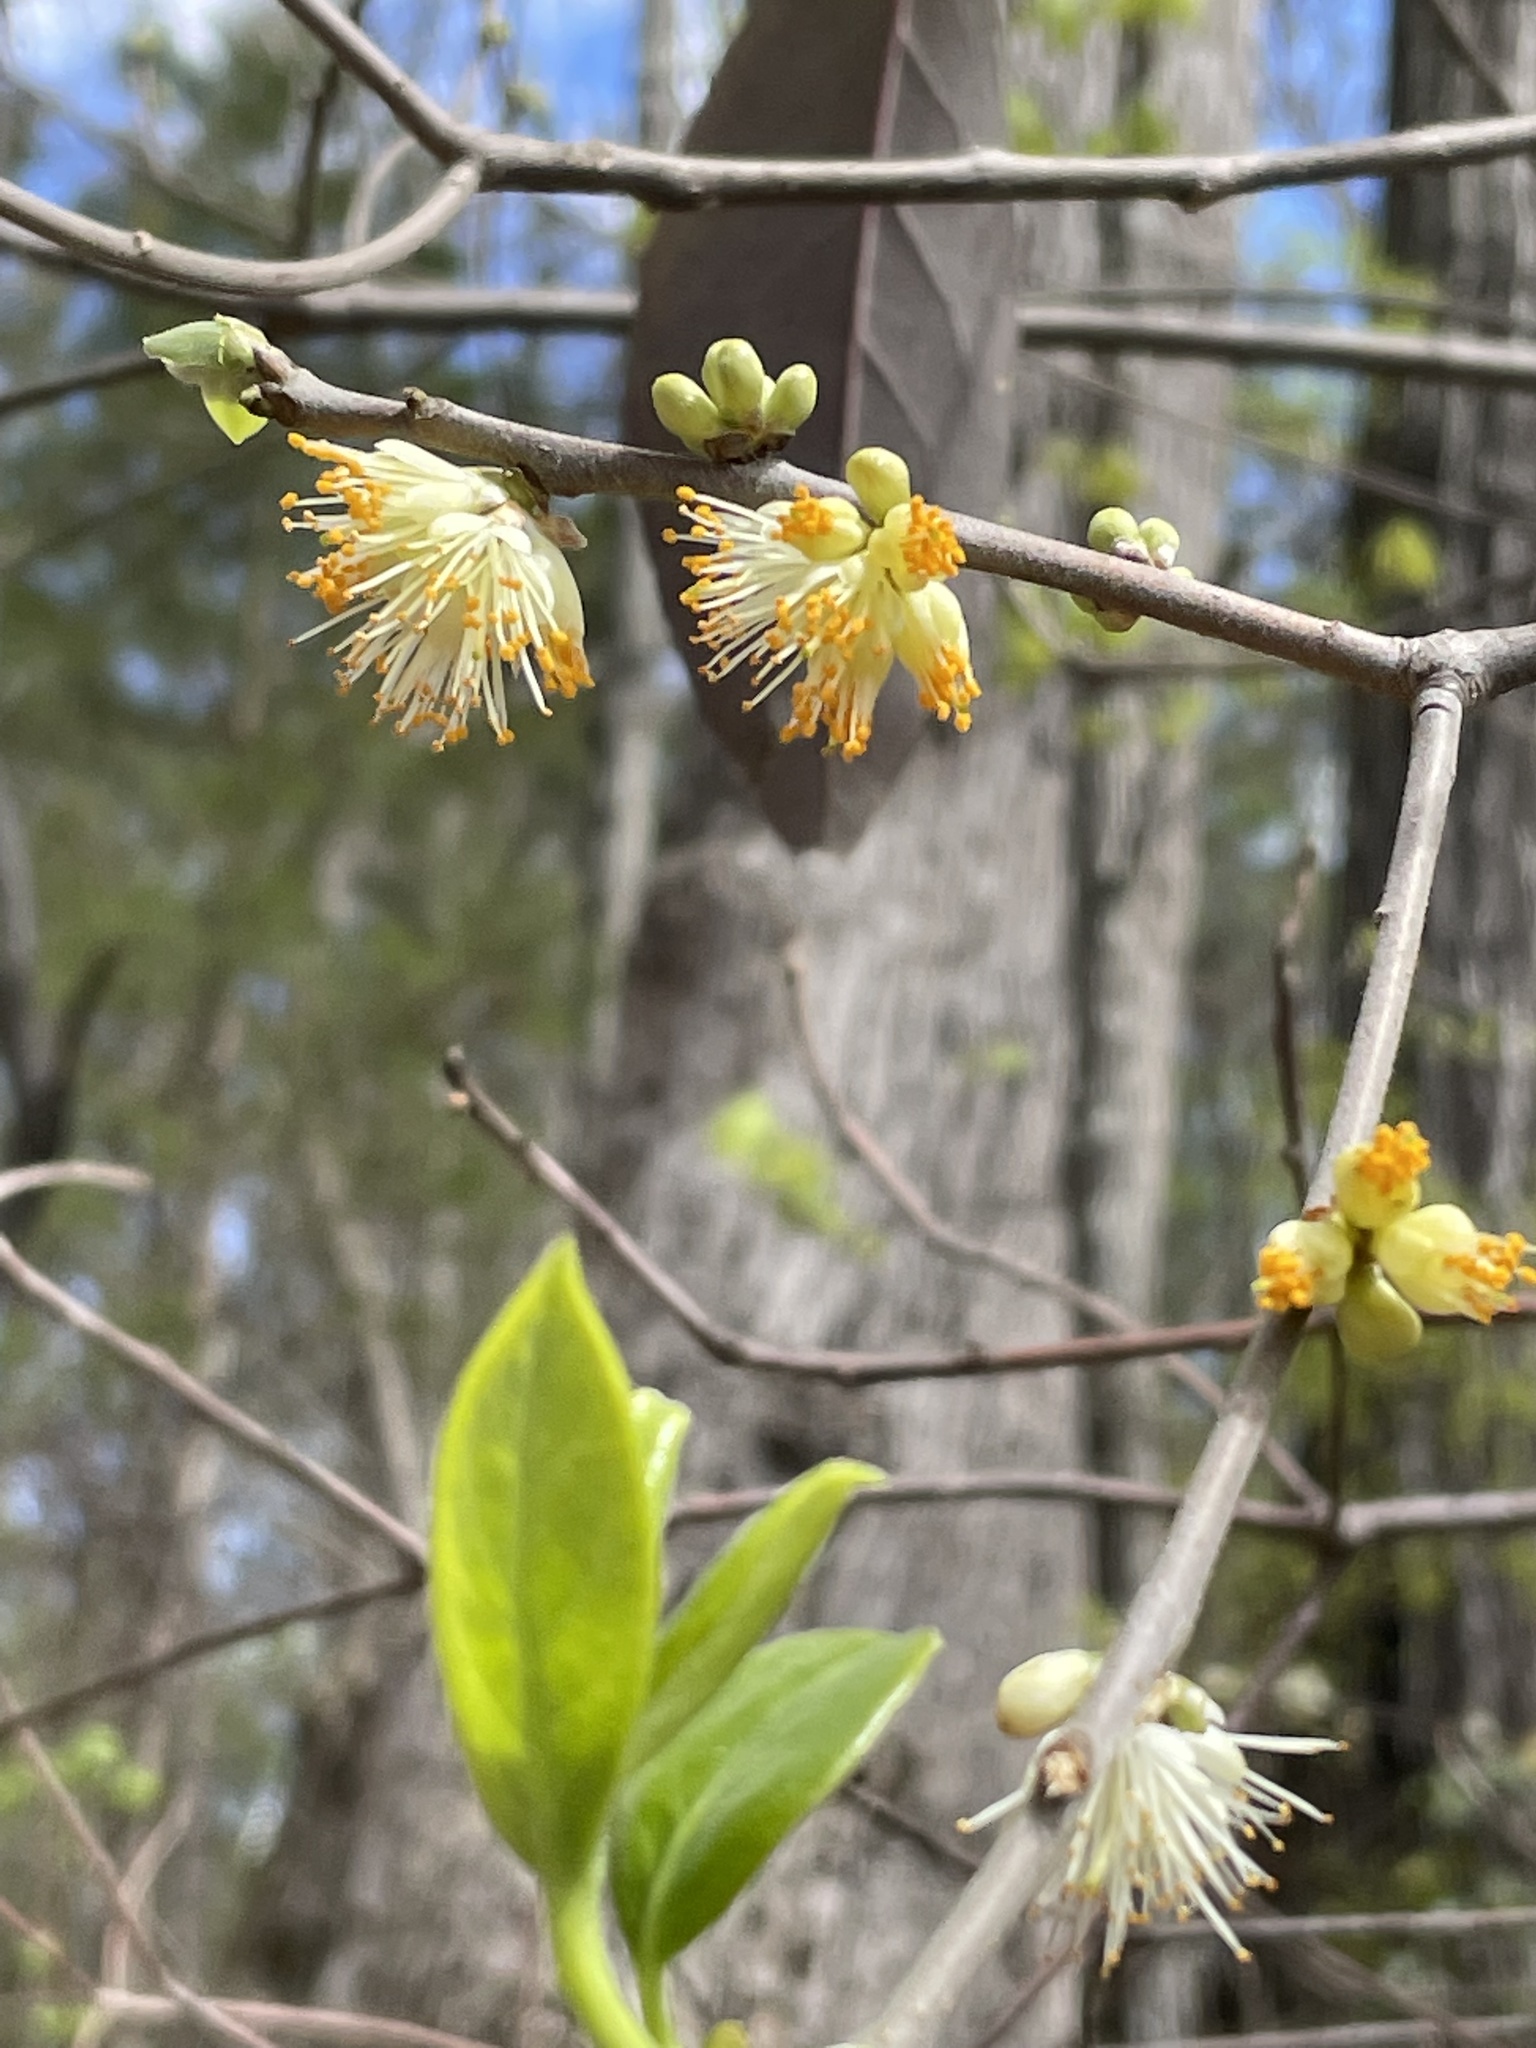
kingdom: Plantae
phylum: Tracheophyta
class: Magnoliopsida
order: Ericales
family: Symplocaceae
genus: Symplocos
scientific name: Symplocos tinctoria
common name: Horse-sugar
